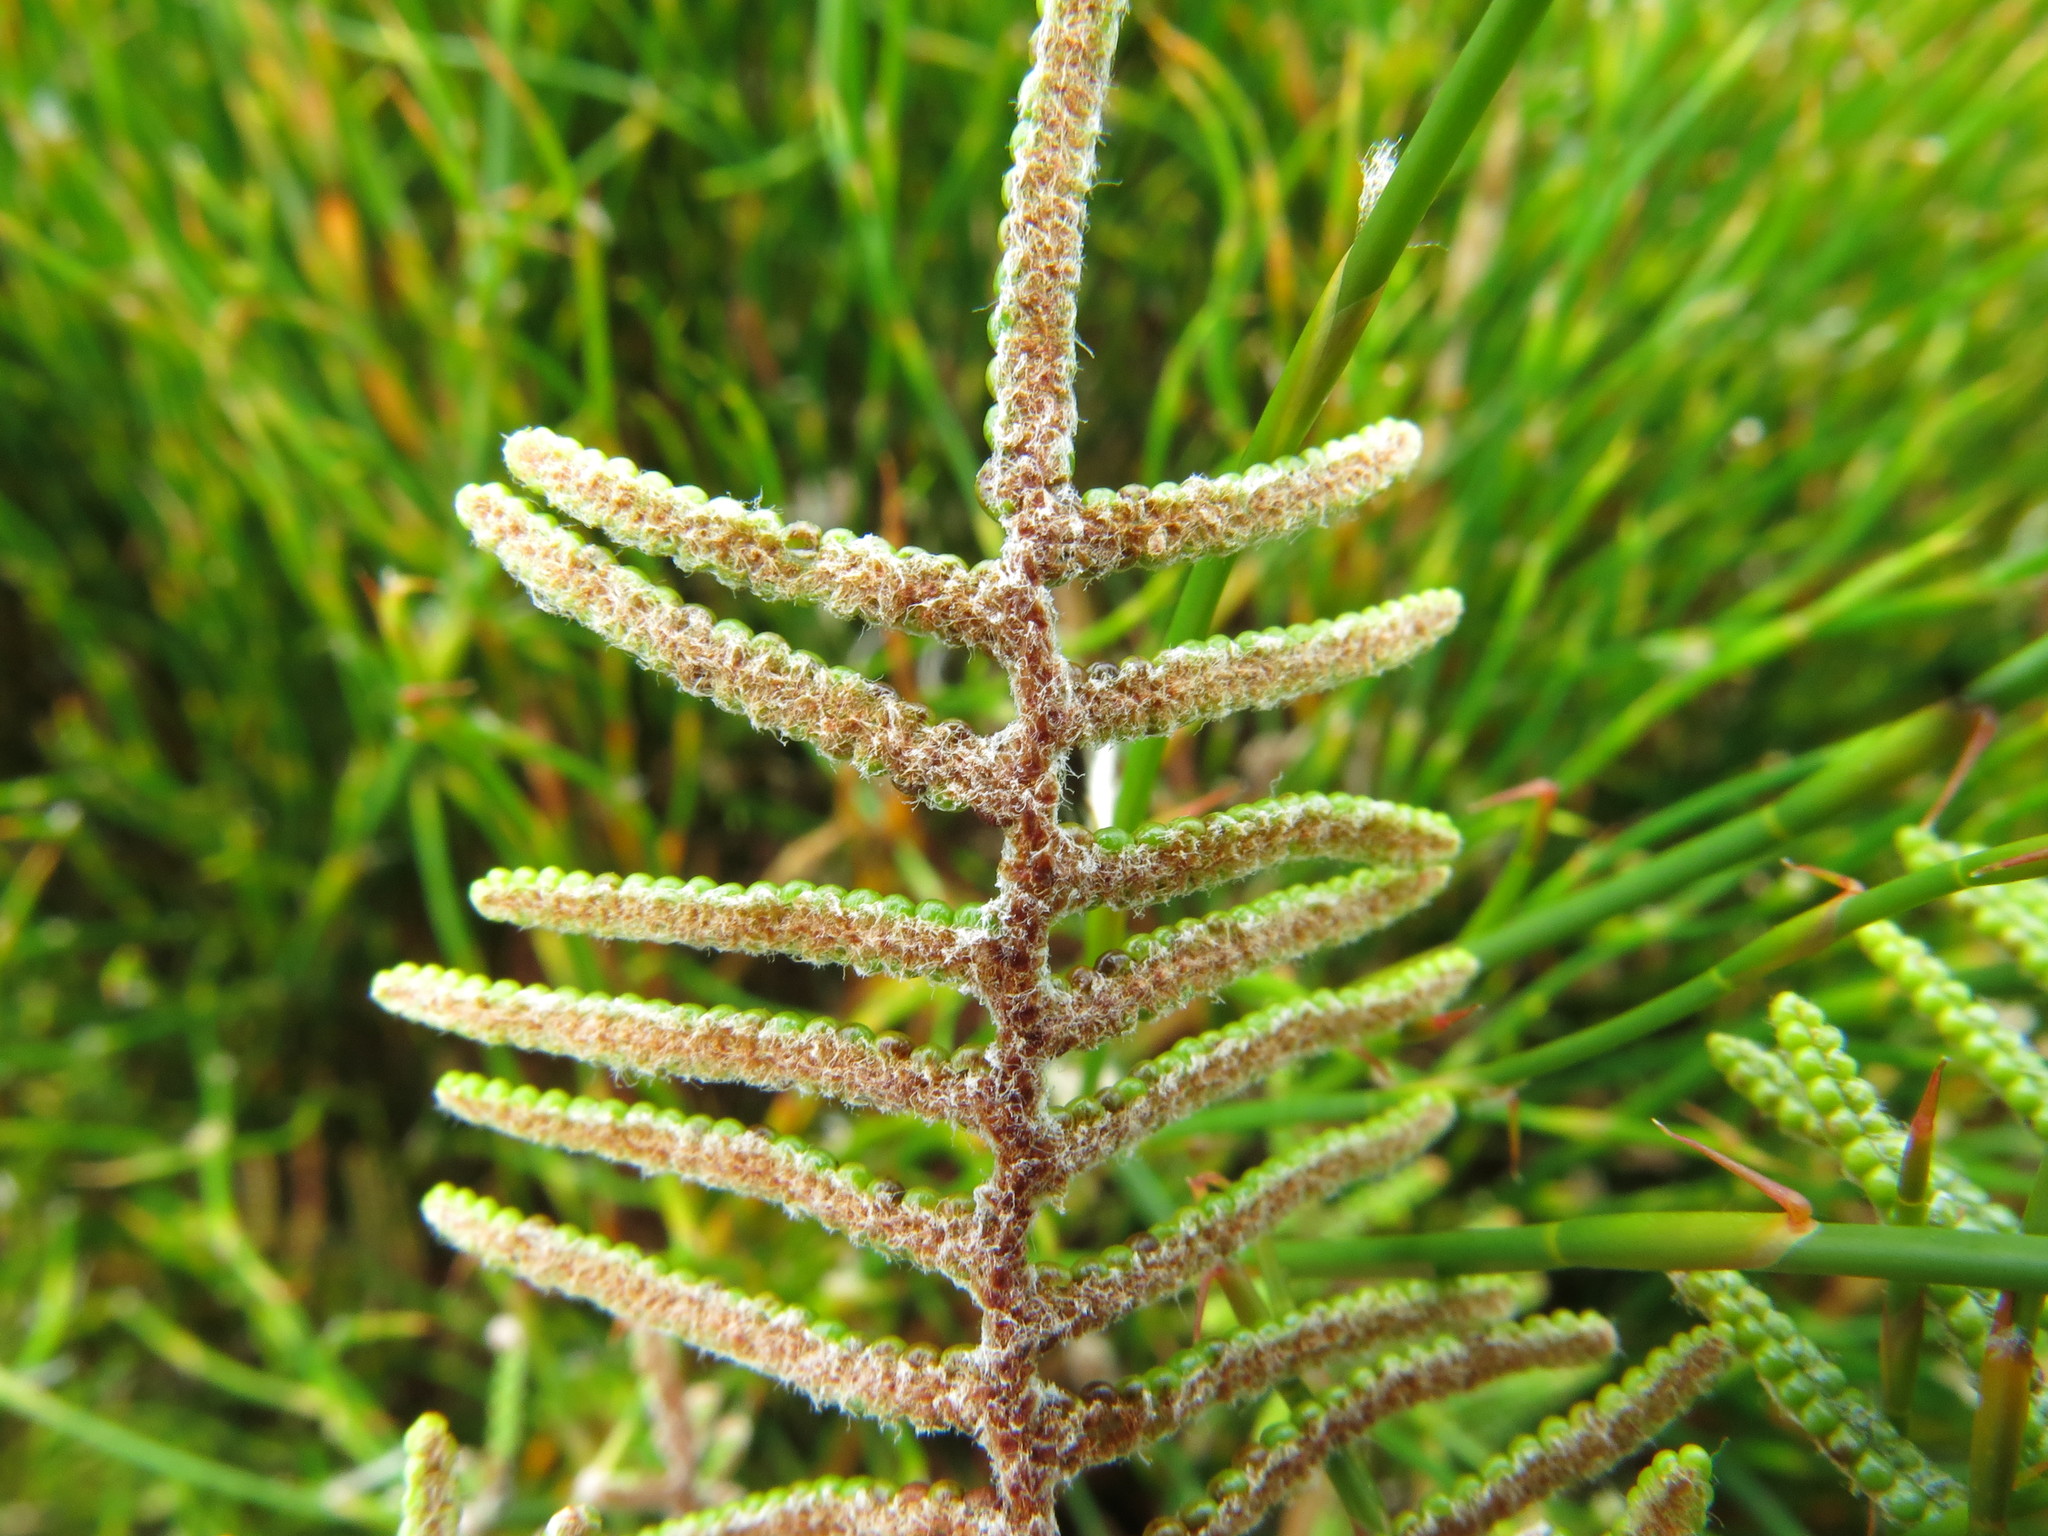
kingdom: Plantae
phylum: Tracheophyta
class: Polypodiopsida
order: Gleicheniales
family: Gleicheniaceae
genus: Gleichenia
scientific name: Gleichenia alpina
